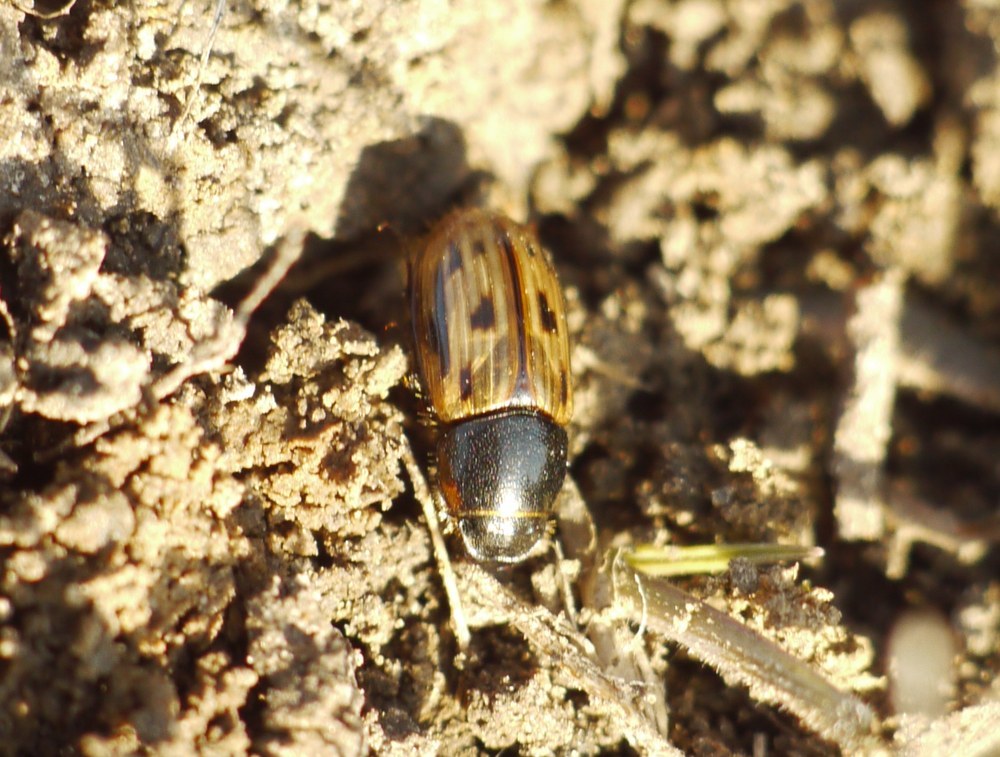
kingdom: Animalia
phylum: Arthropoda
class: Insecta
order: Coleoptera
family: Scarabaeidae
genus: Chilothorax
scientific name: Chilothorax melanostictus
